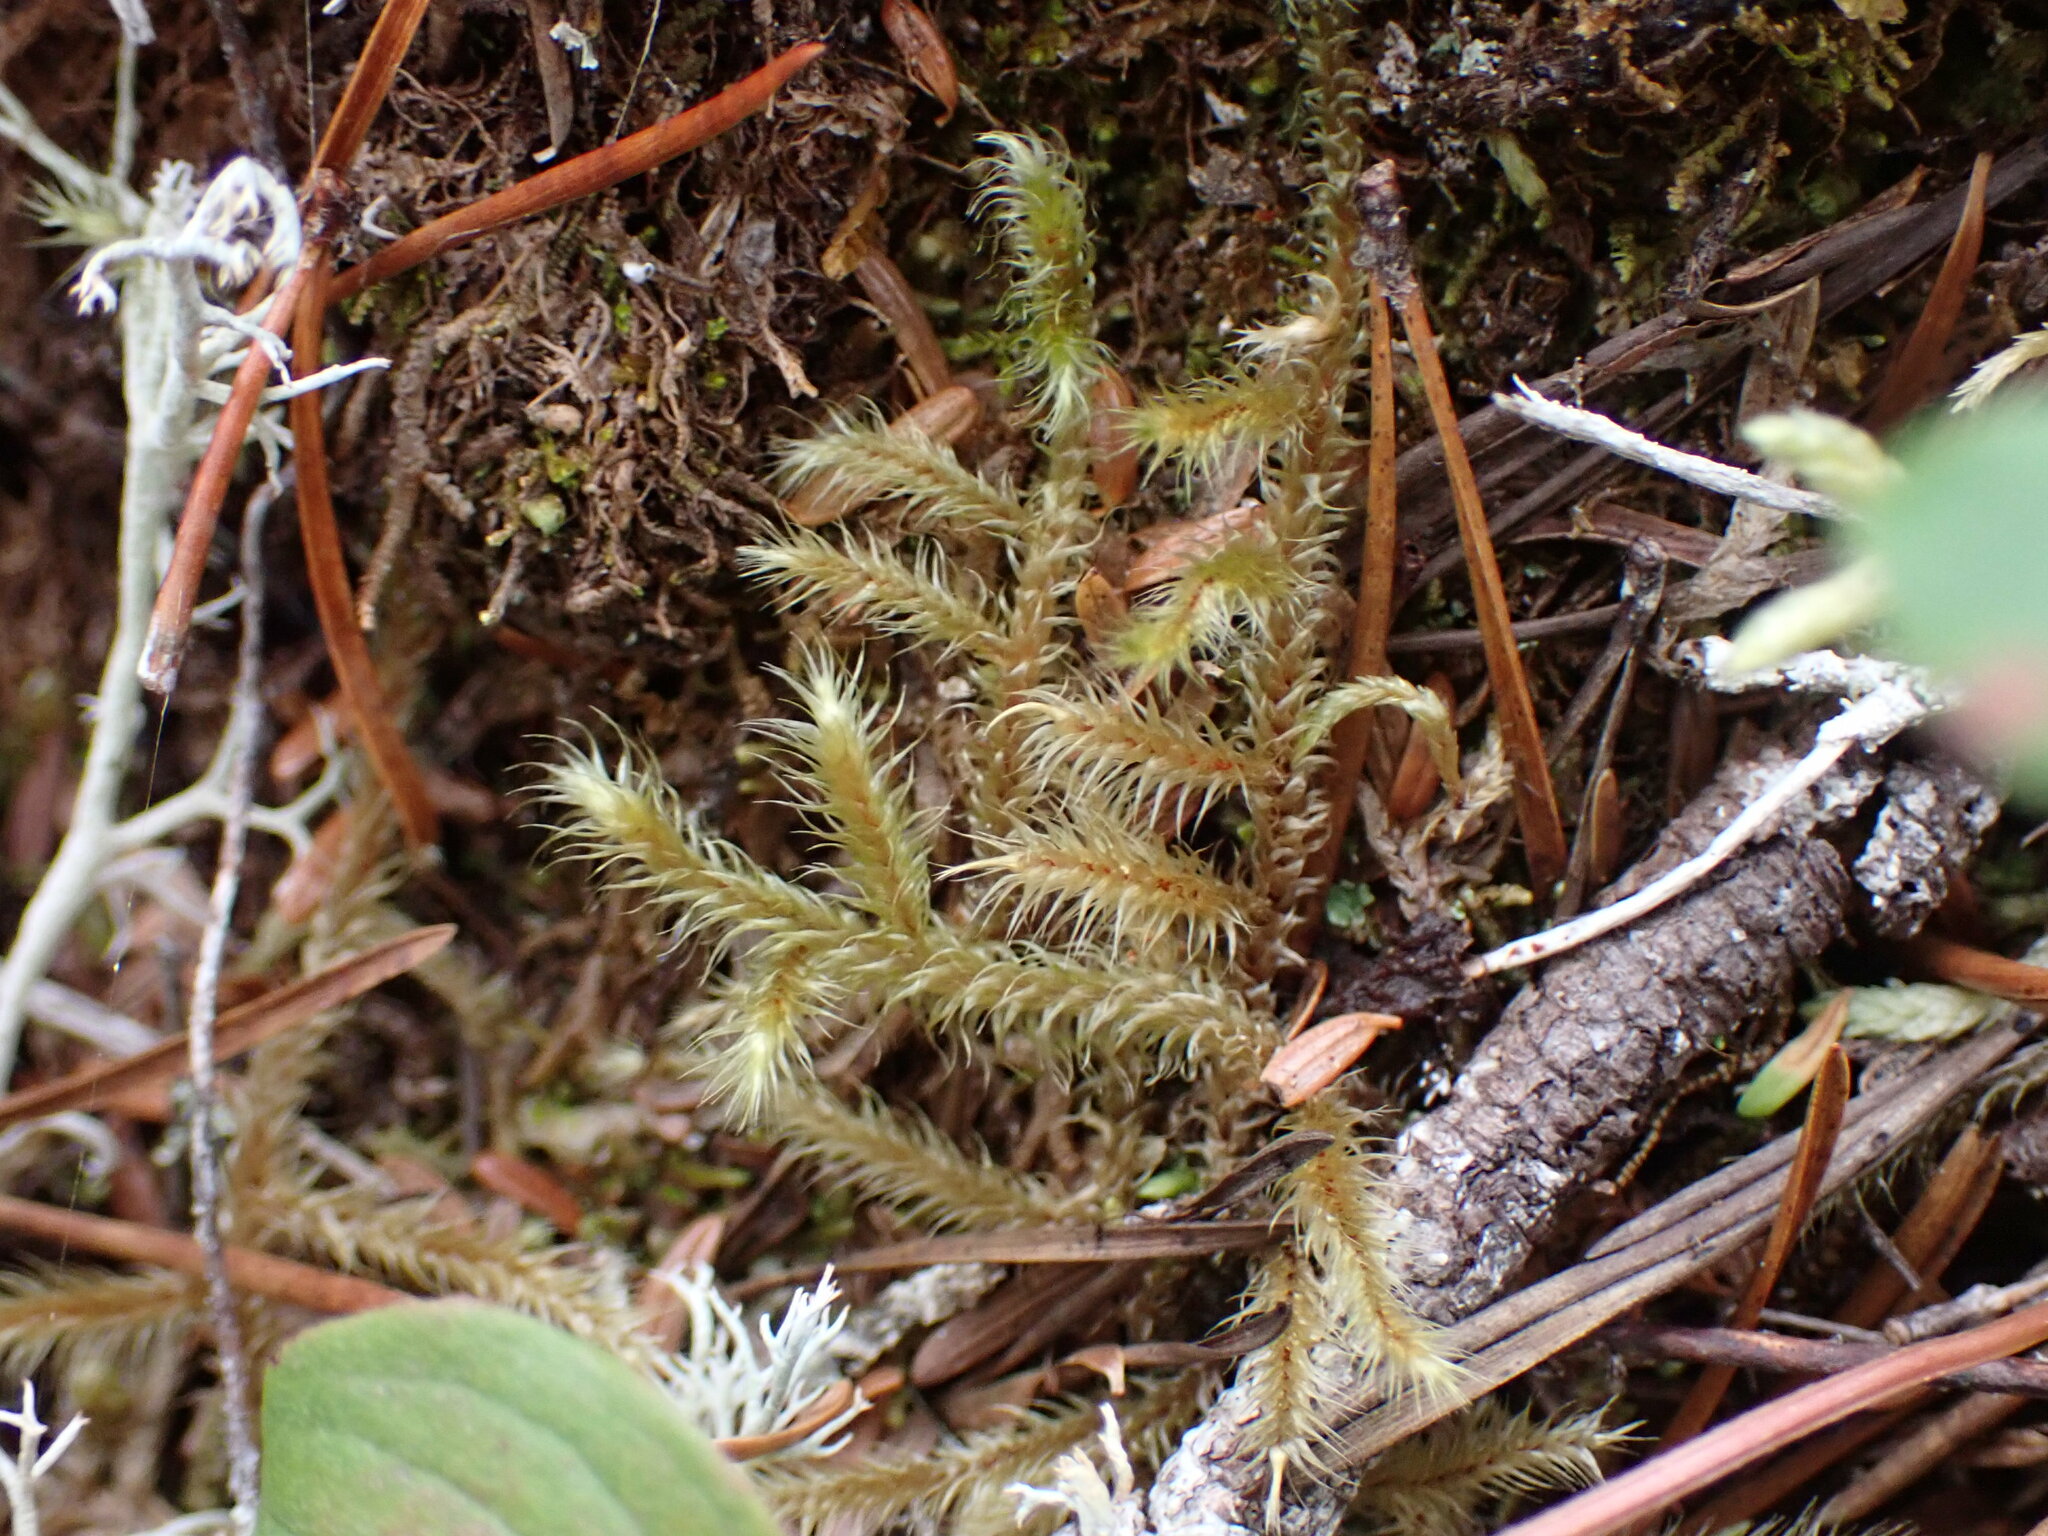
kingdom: Plantae
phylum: Bryophyta
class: Bryopsida
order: Hypnales
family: Hylocomiaceae
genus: Rhytidiadelphus
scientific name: Rhytidiadelphus loreus
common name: Lanky moss
